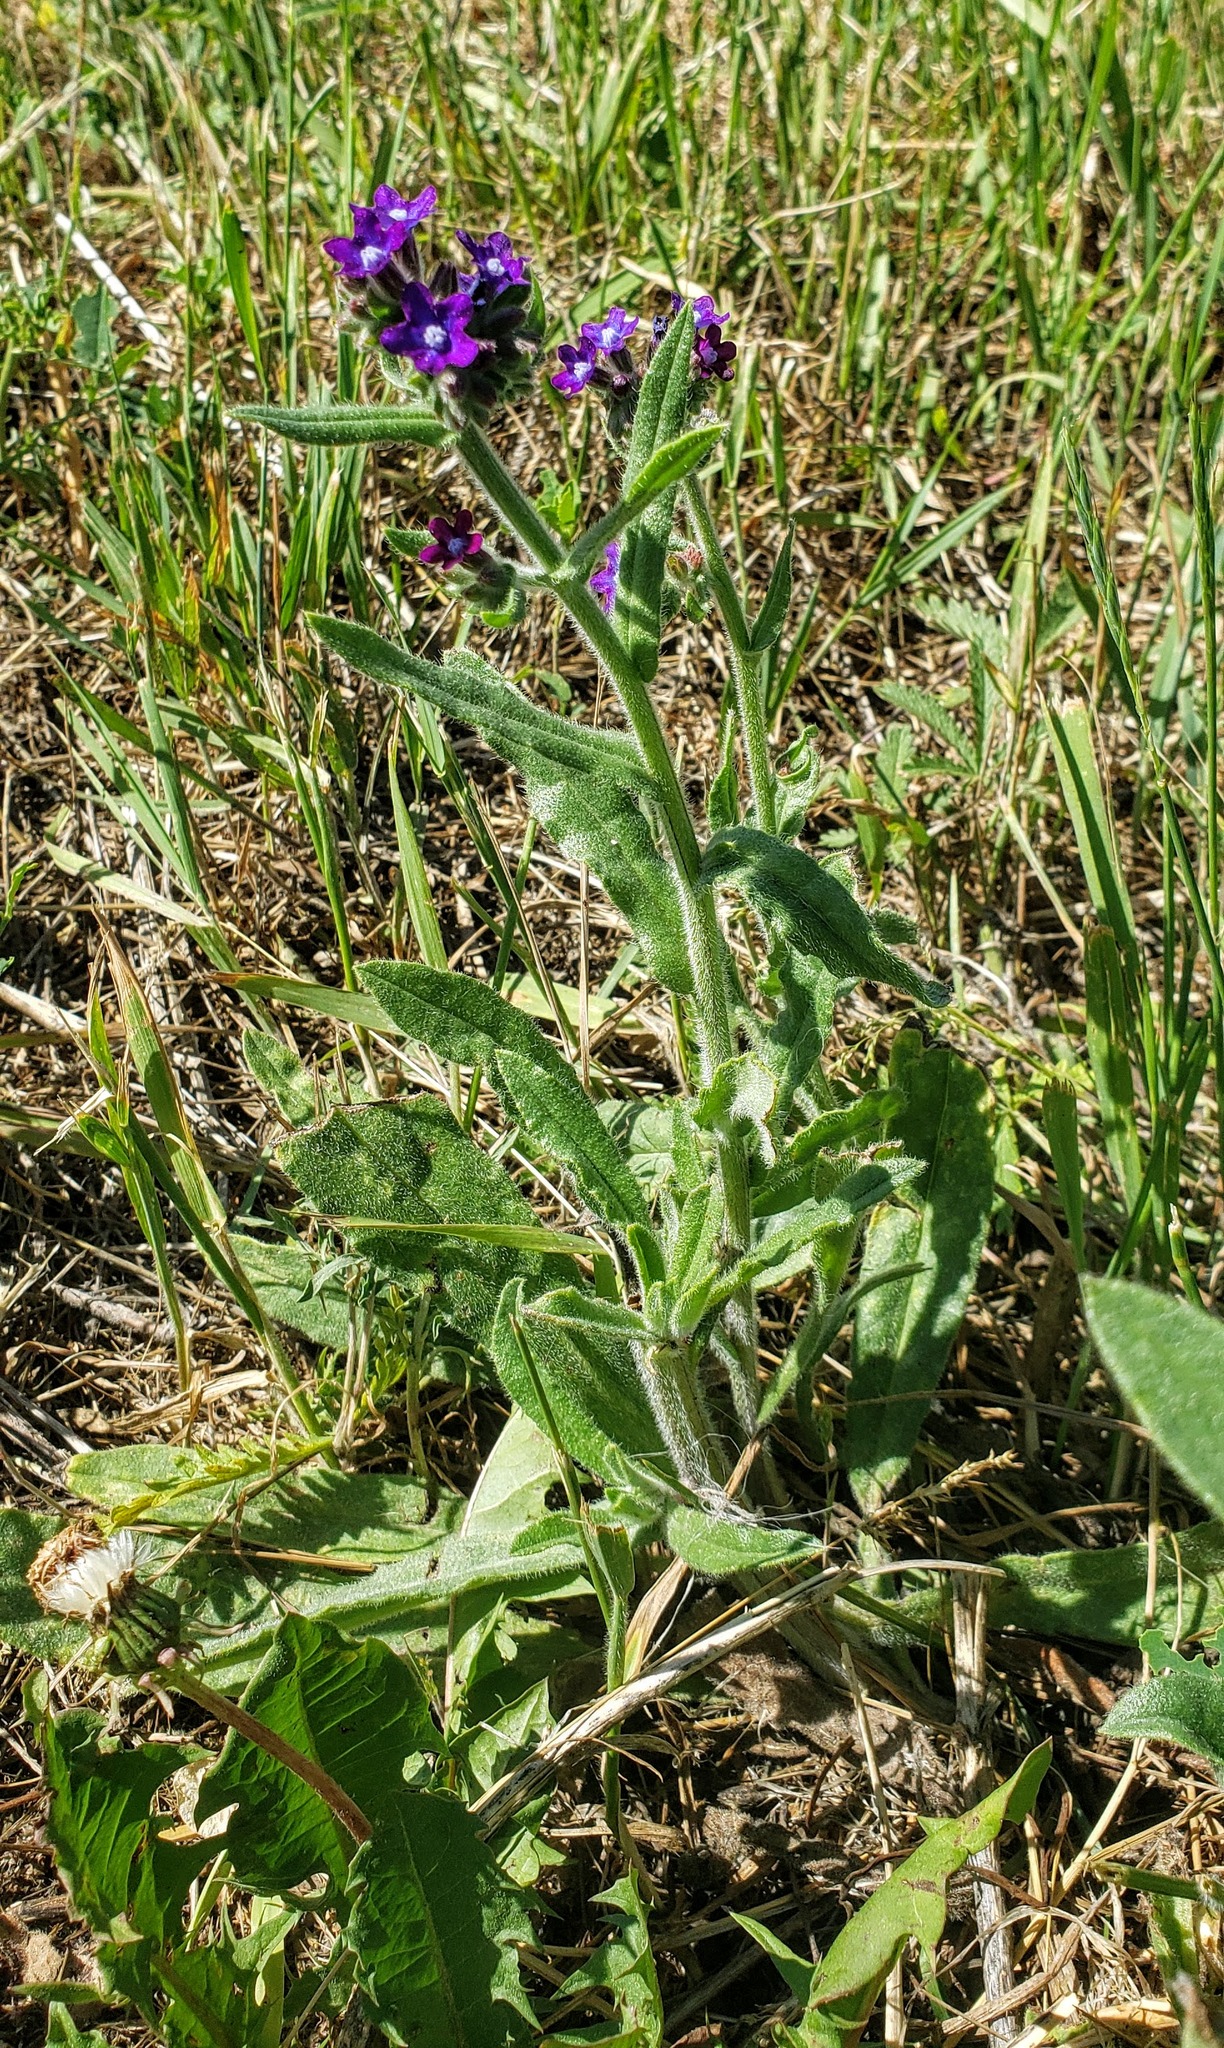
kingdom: Plantae
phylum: Tracheophyta
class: Magnoliopsida
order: Boraginales
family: Boraginaceae
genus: Anchusa
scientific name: Anchusa officinalis
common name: Alkanet
